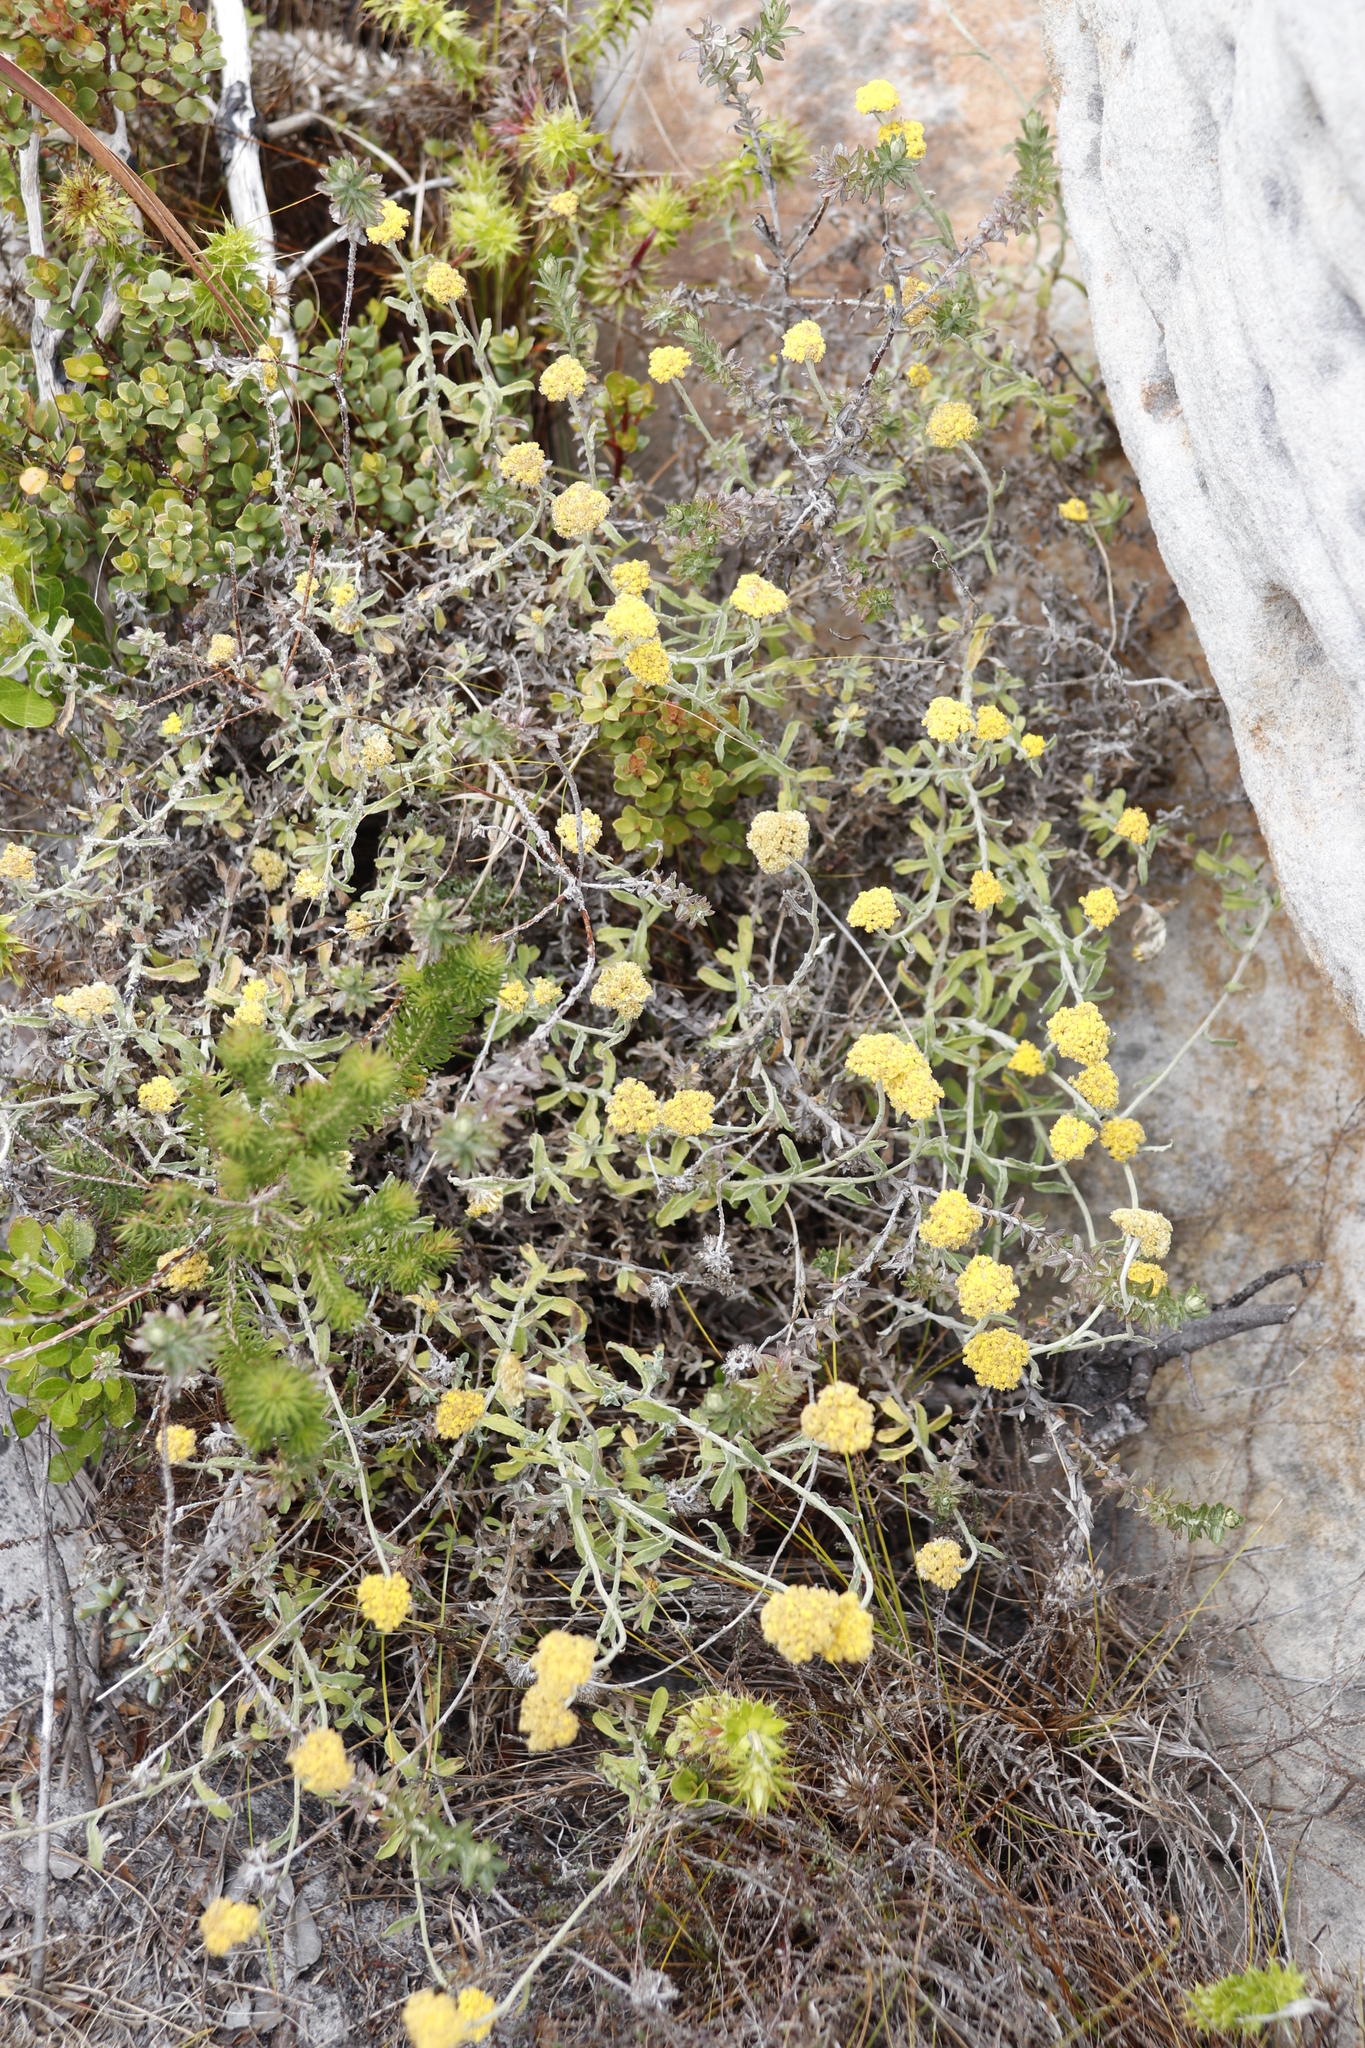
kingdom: Plantae
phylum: Tracheophyta
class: Magnoliopsida
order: Asterales
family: Asteraceae
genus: Helichrysum
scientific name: Helichrysum cymosum
